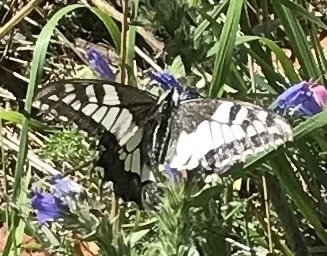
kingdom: Animalia
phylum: Arthropoda
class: Insecta
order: Lepidoptera
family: Papilionidae
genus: Papilio
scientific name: Papilio machaon
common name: Swallowtail
